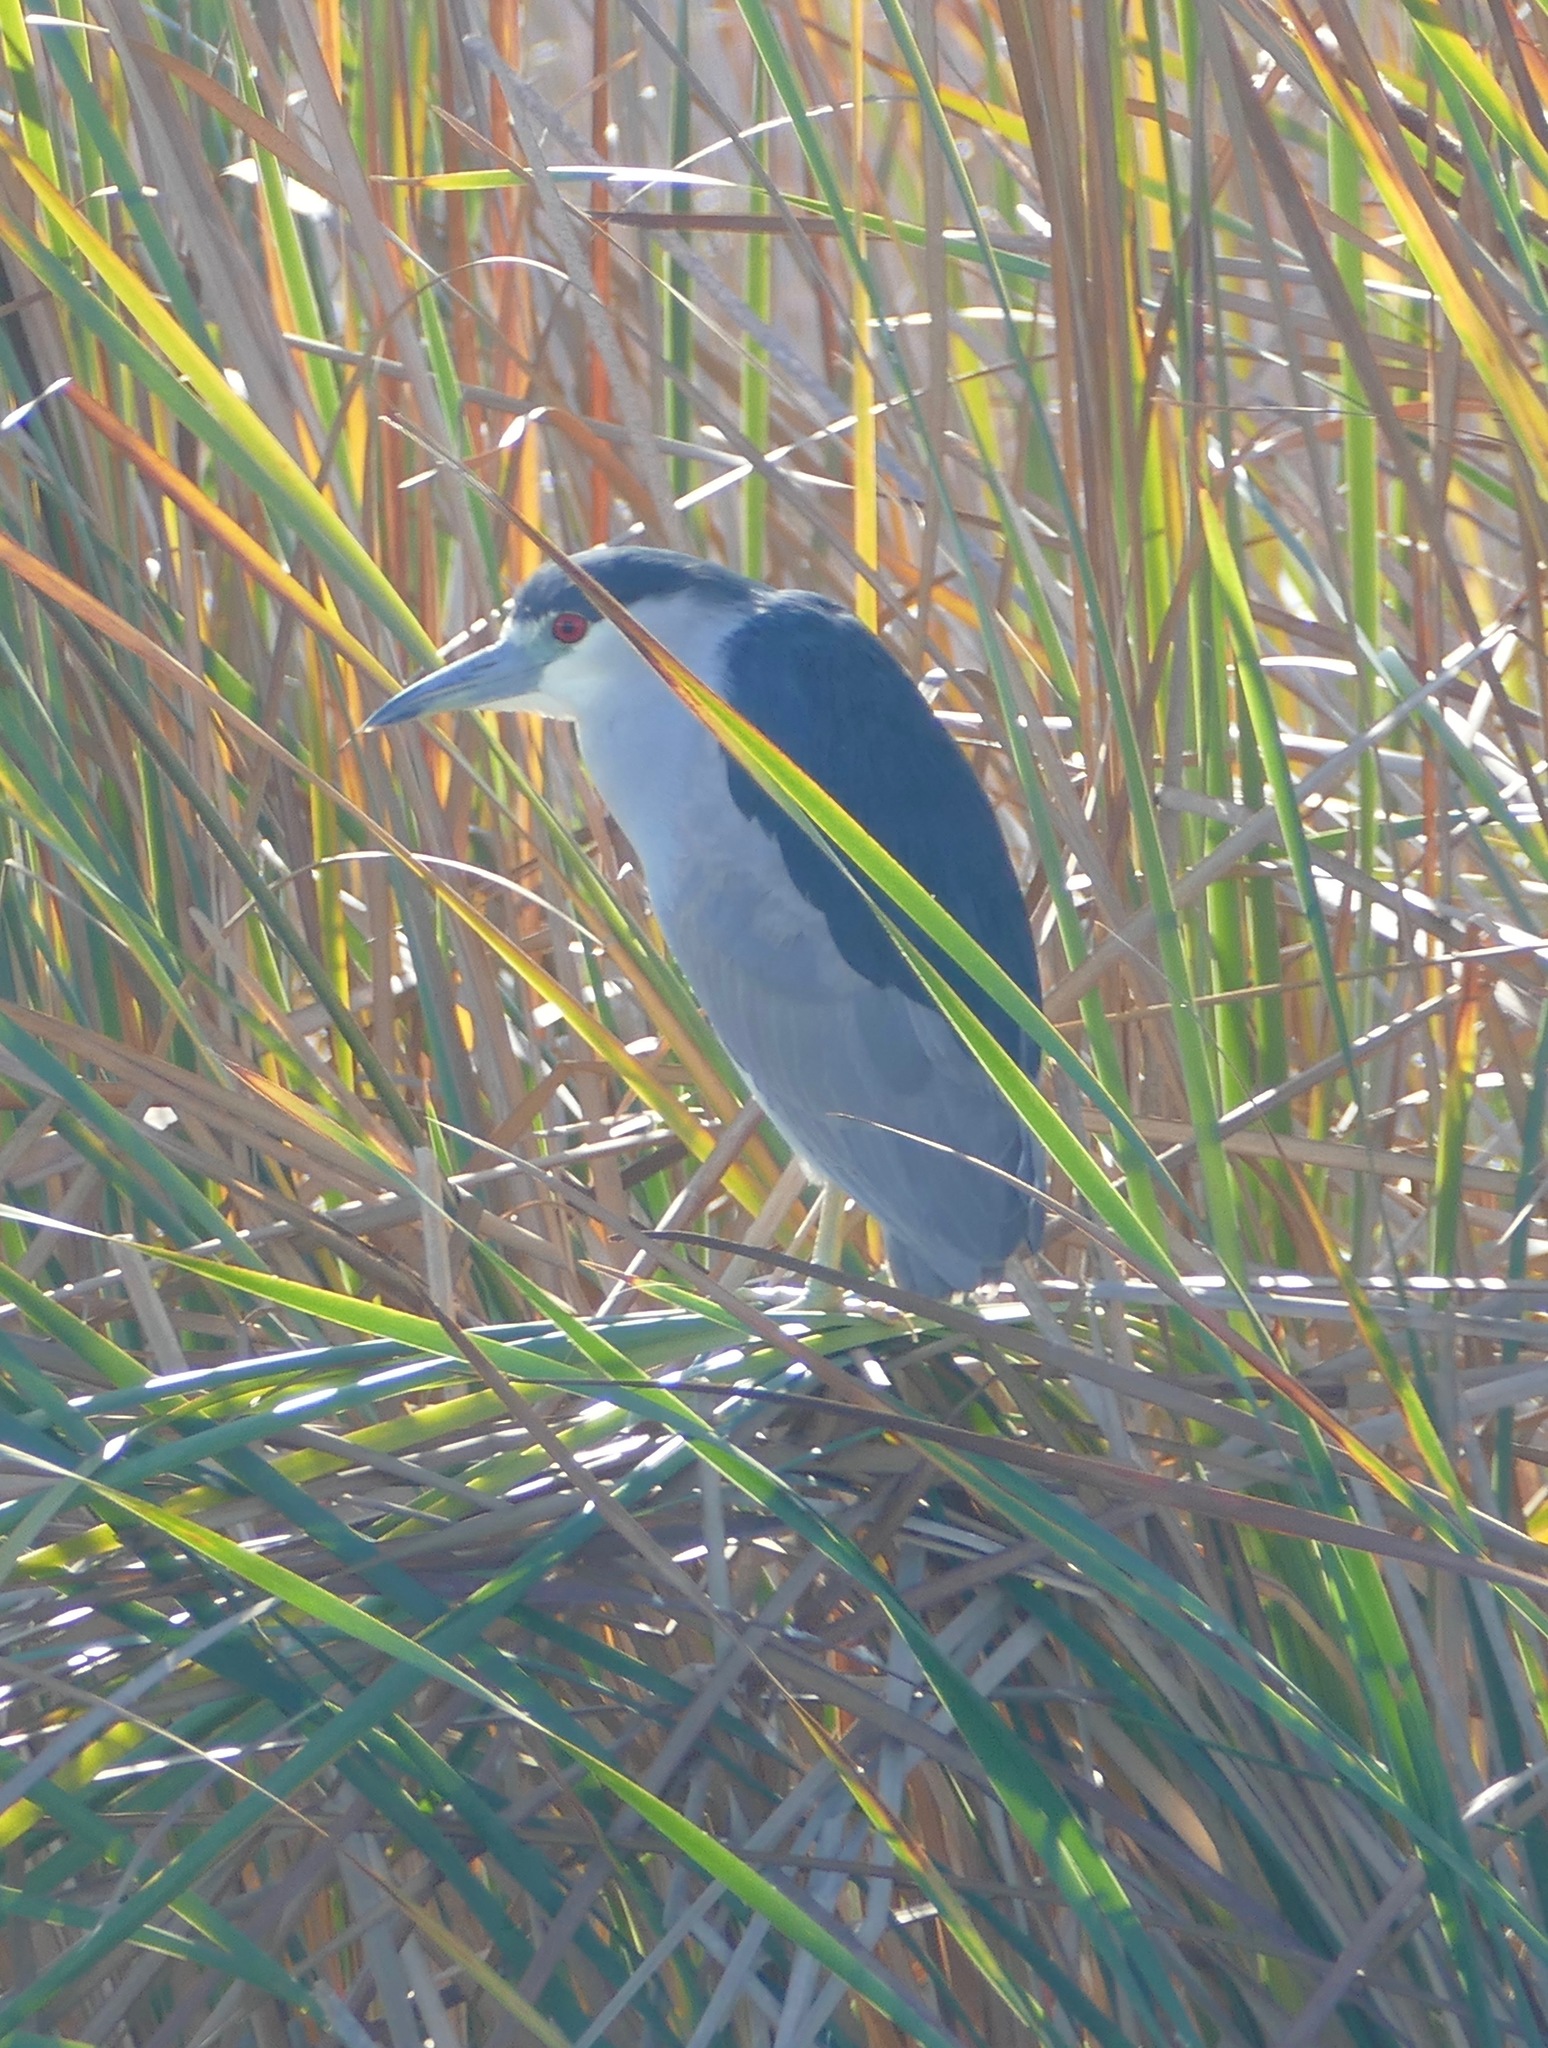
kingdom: Animalia
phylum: Chordata
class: Aves
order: Pelecaniformes
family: Ardeidae
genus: Nycticorax
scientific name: Nycticorax nycticorax
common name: Black-crowned night heron
